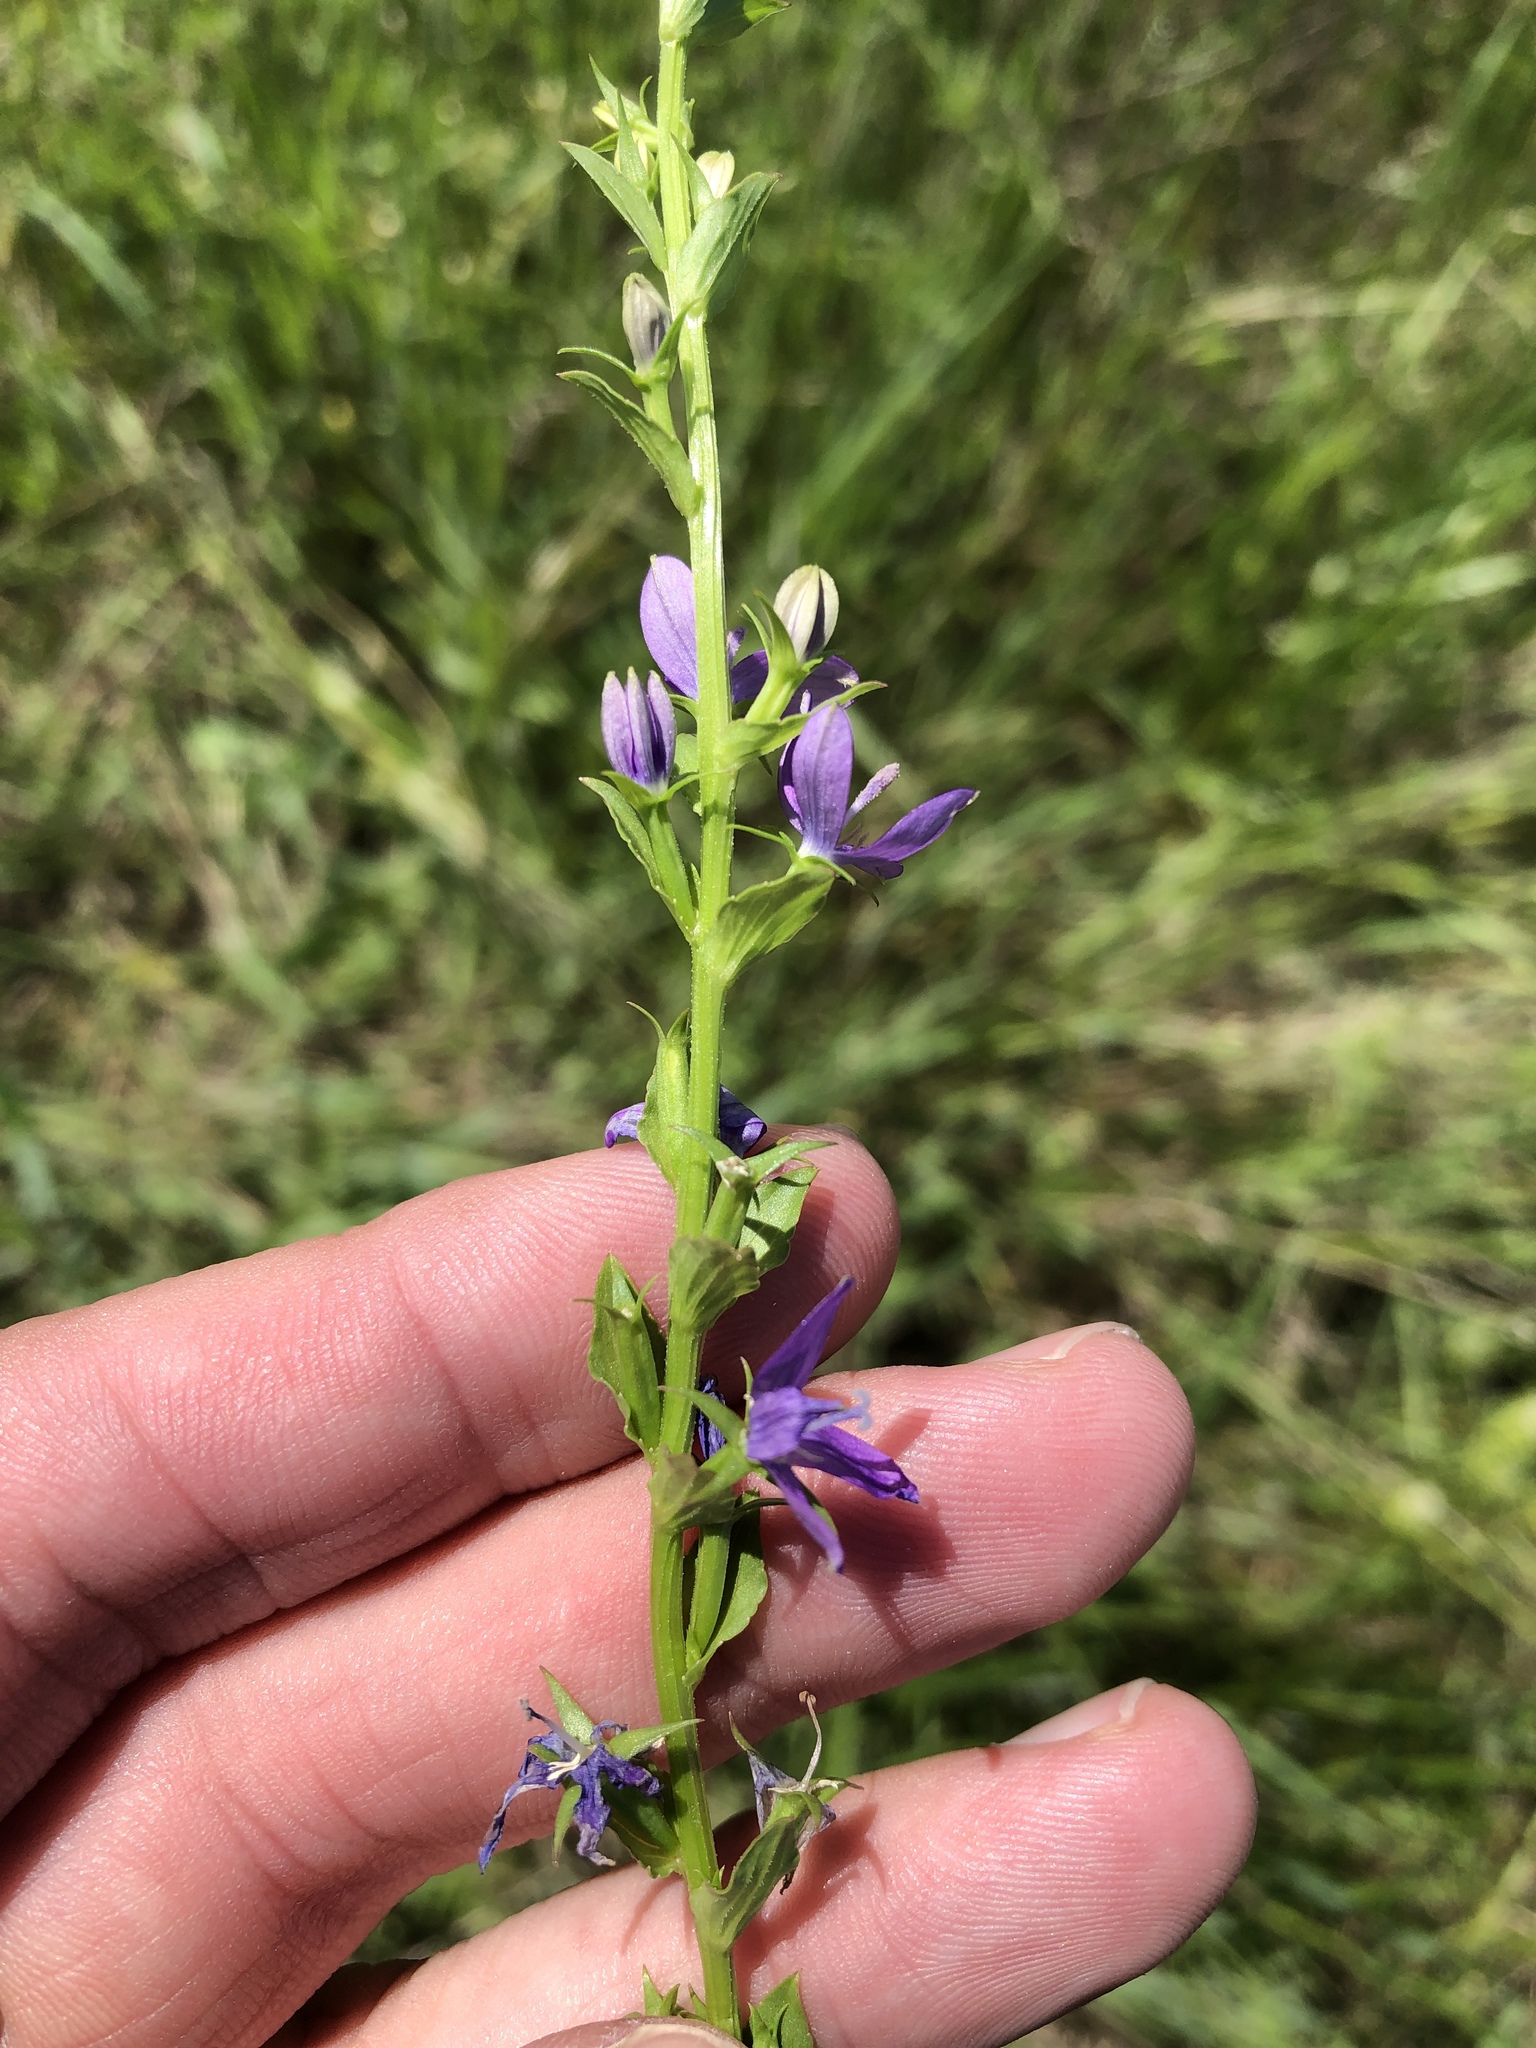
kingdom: Plantae
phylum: Tracheophyta
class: Magnoliopsida
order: Asterales
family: Campanulaceae
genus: Triodanis
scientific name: Triodanis biflora
